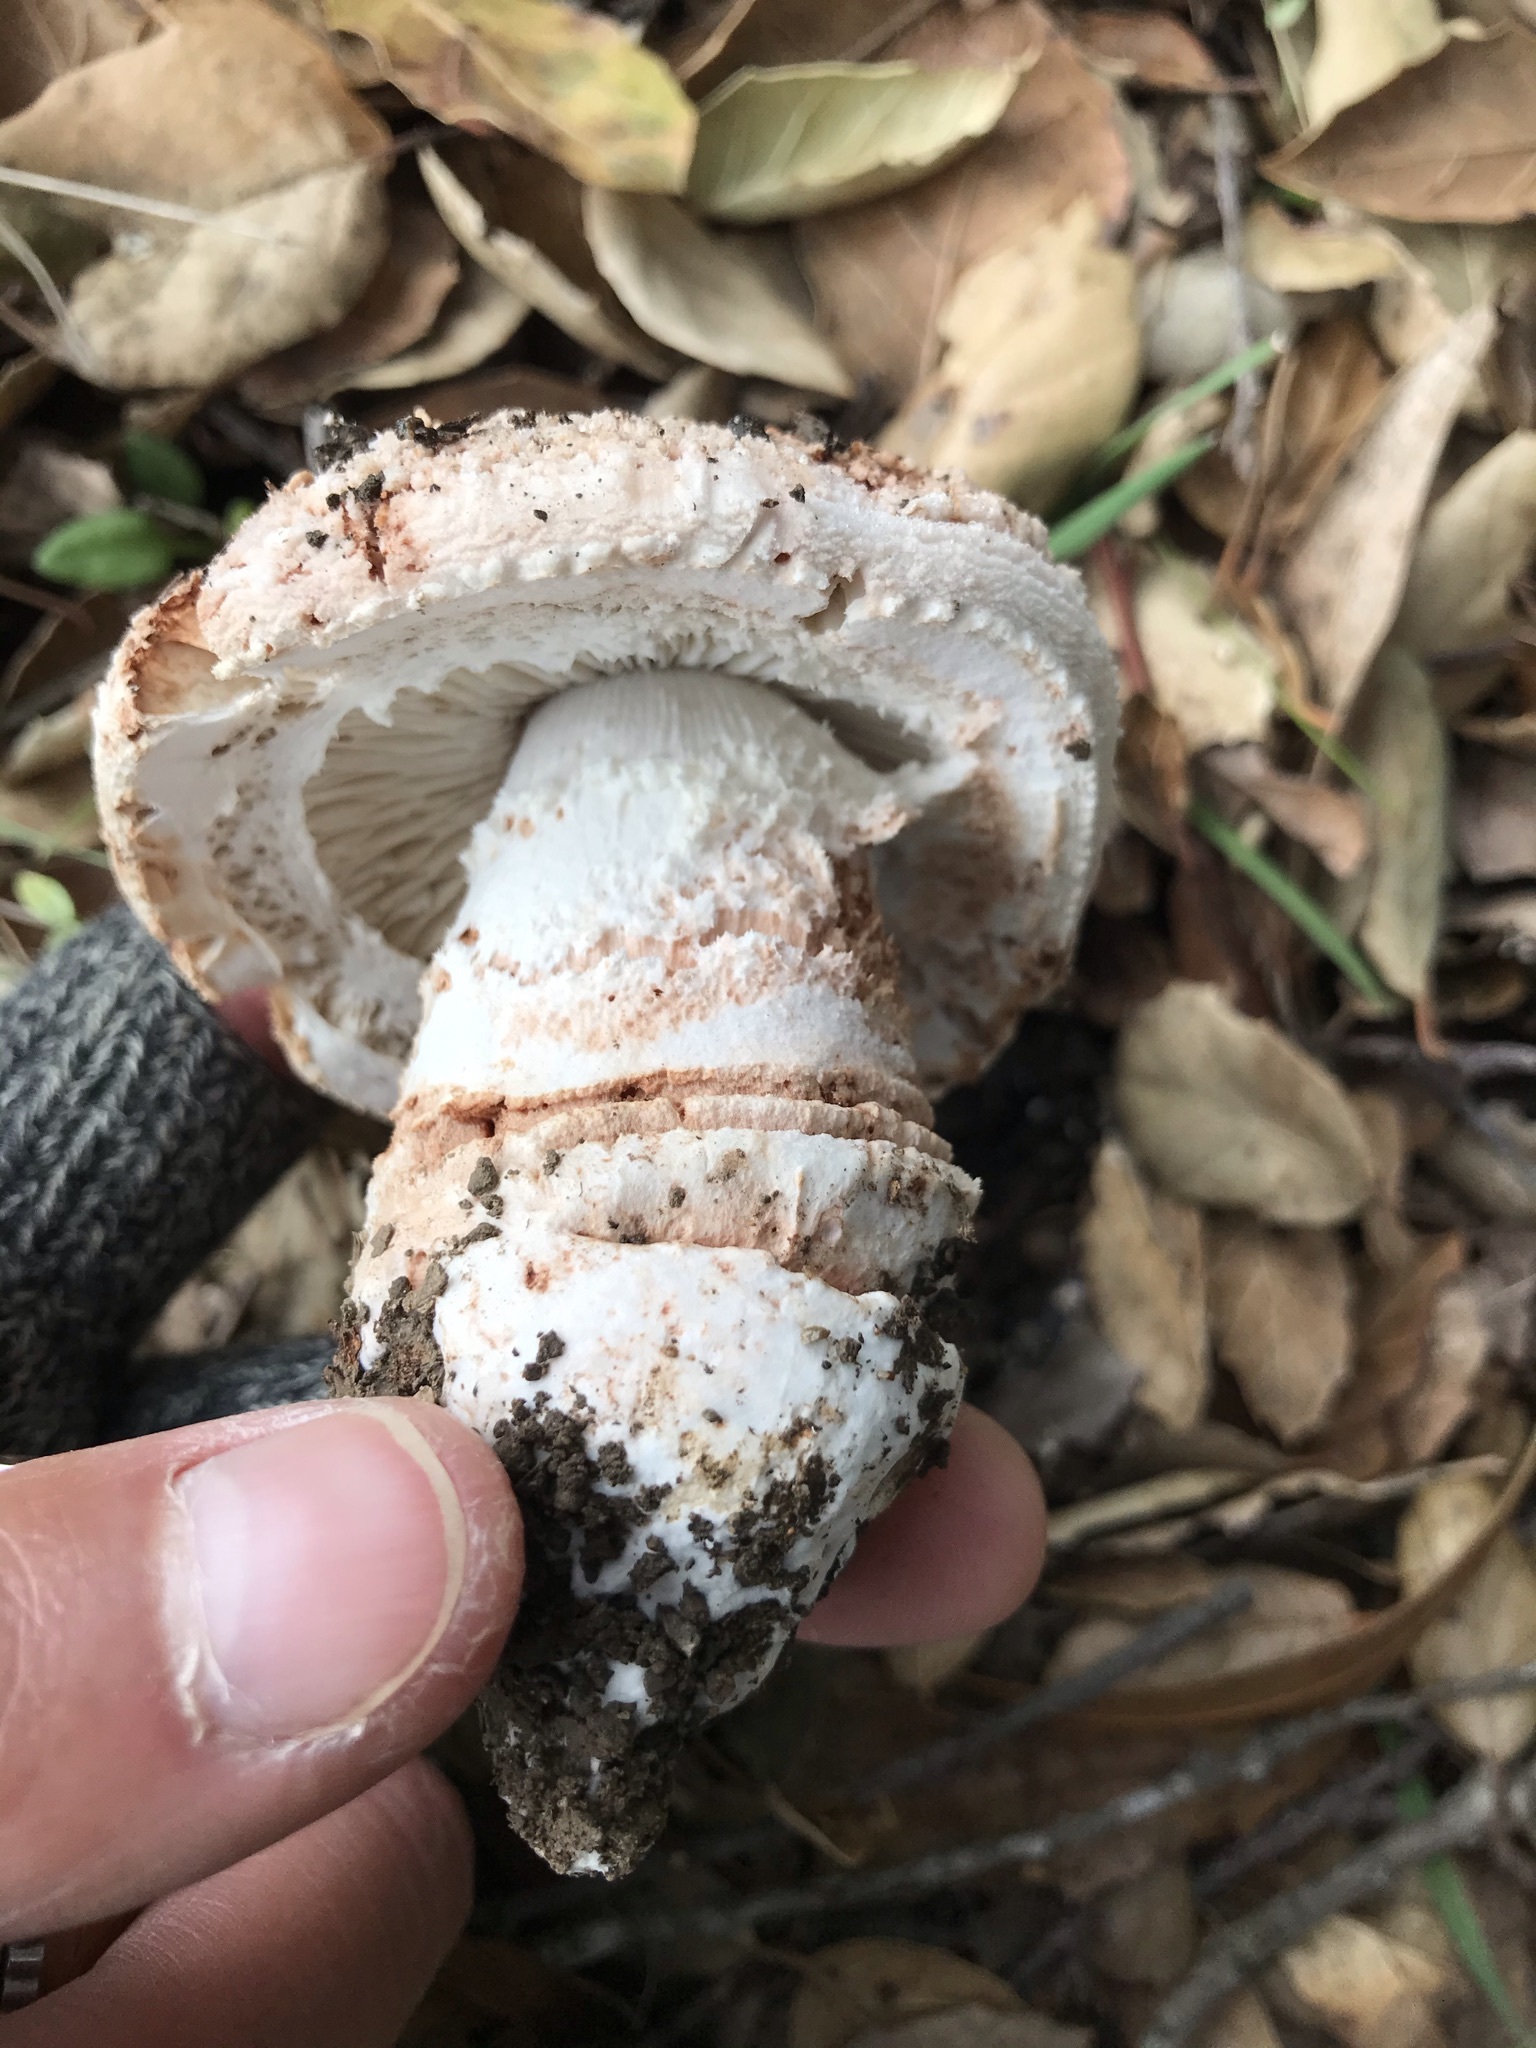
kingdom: Fungi
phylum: Basidiomycota
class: Agaricomycetes
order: Agaricales
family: Amanitaceae
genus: Amanita
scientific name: Amanita novinupta
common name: Blushing bride
